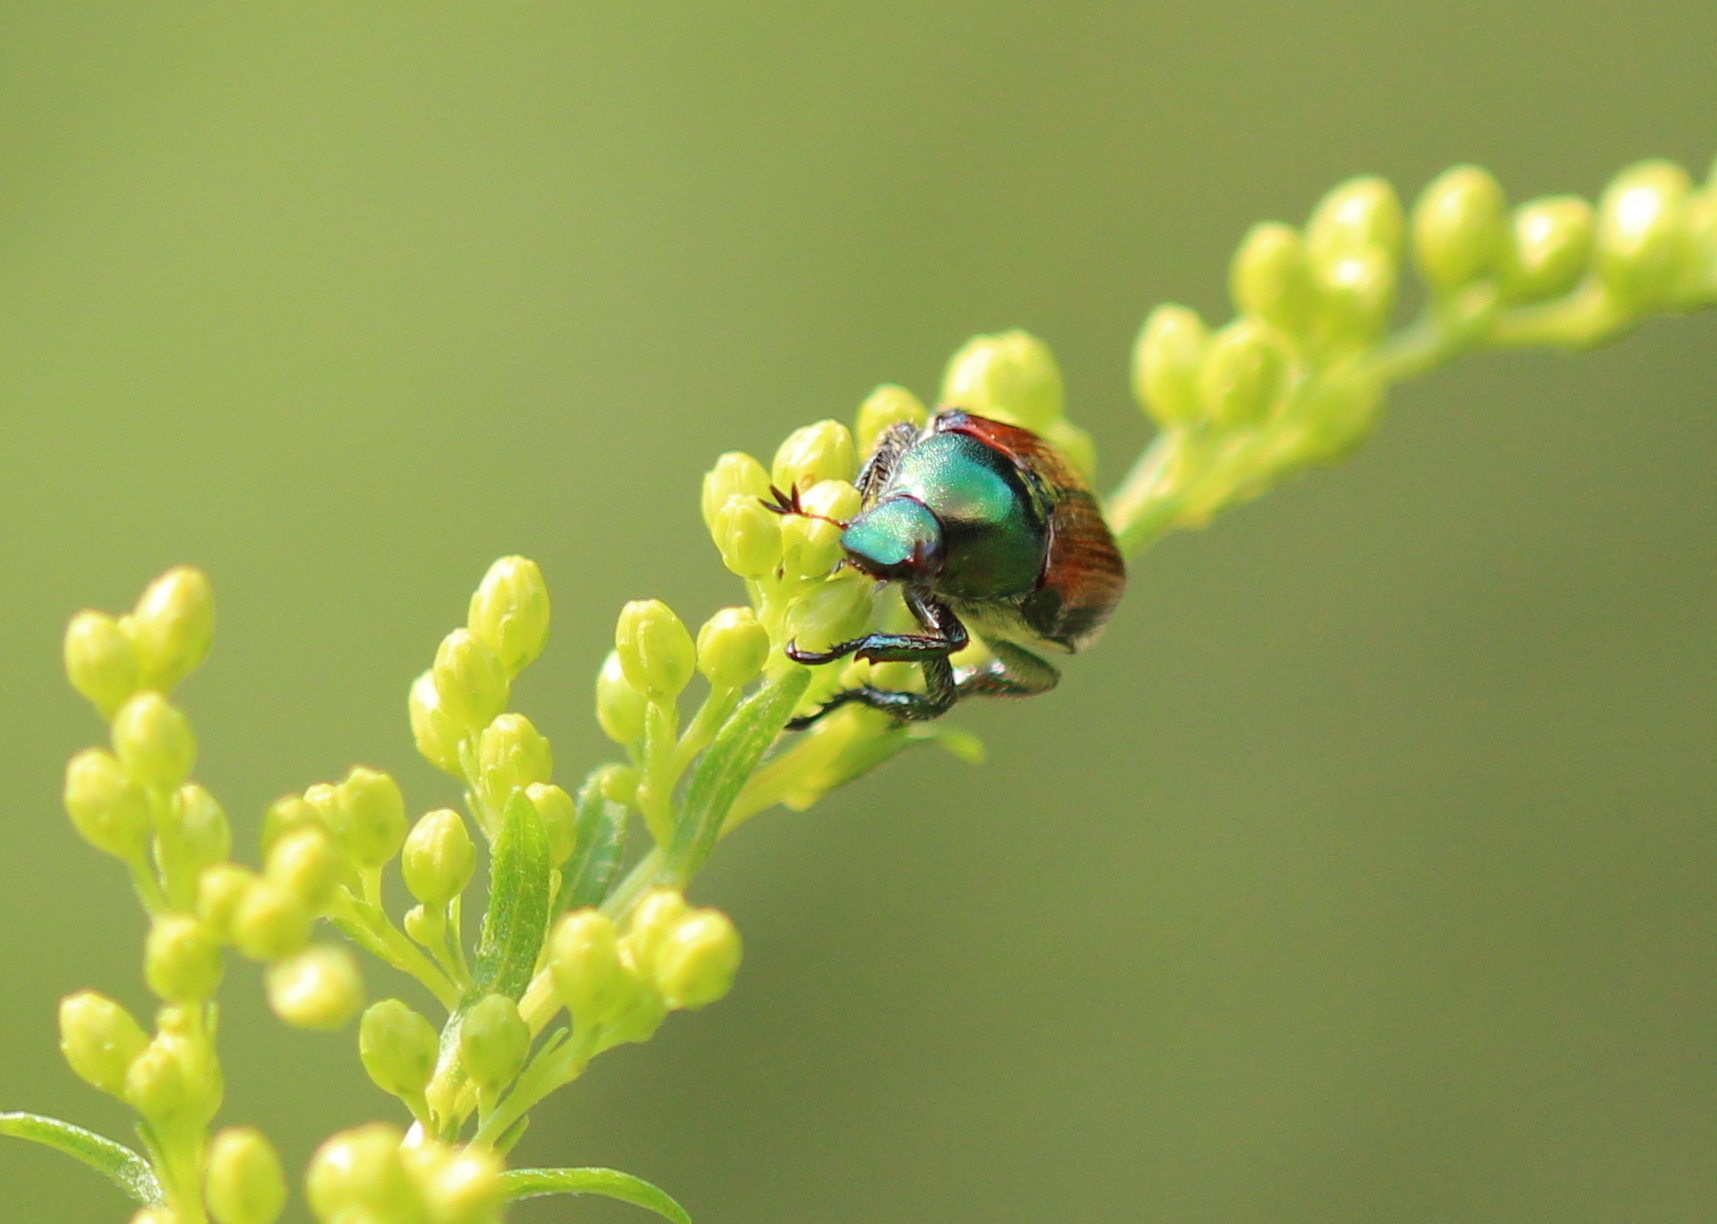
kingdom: Animalia
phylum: Arthropoda
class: Insecta
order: Coleoptera
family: Scarabaeidae
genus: Popillia
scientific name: Popillia japonica
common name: Japanese beetle
